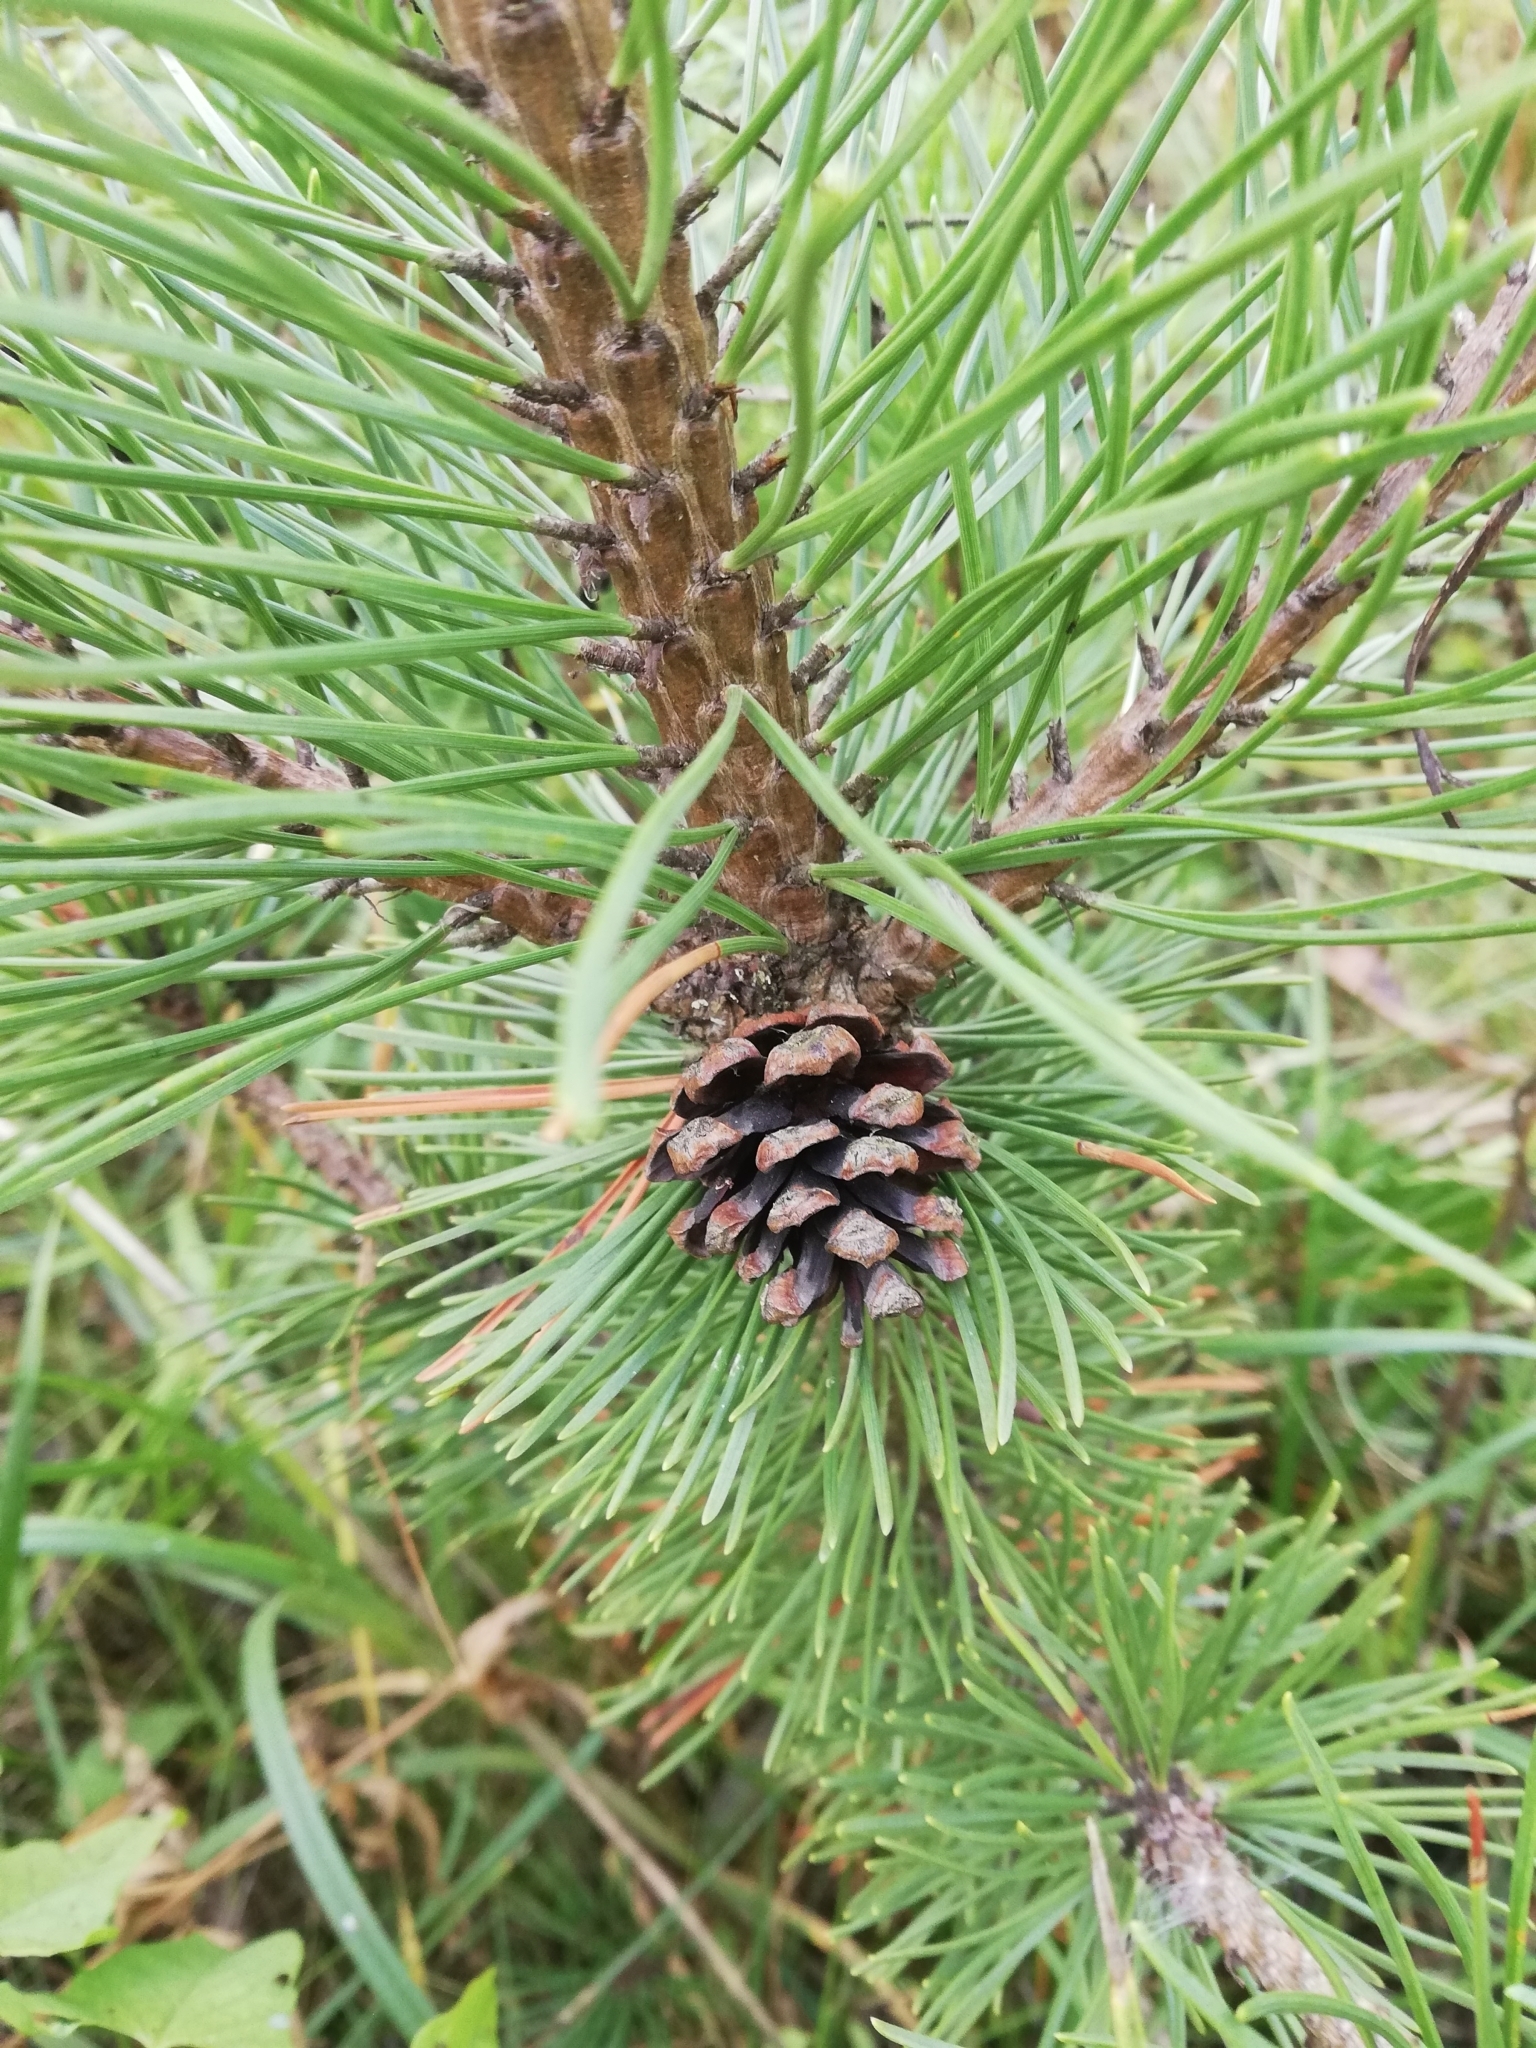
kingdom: Plantae
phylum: Tracheophyta
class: Pinopsida
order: Pinales
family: Pinaceae
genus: Pinus
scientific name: Pinus sylvestris
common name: Scots pine
